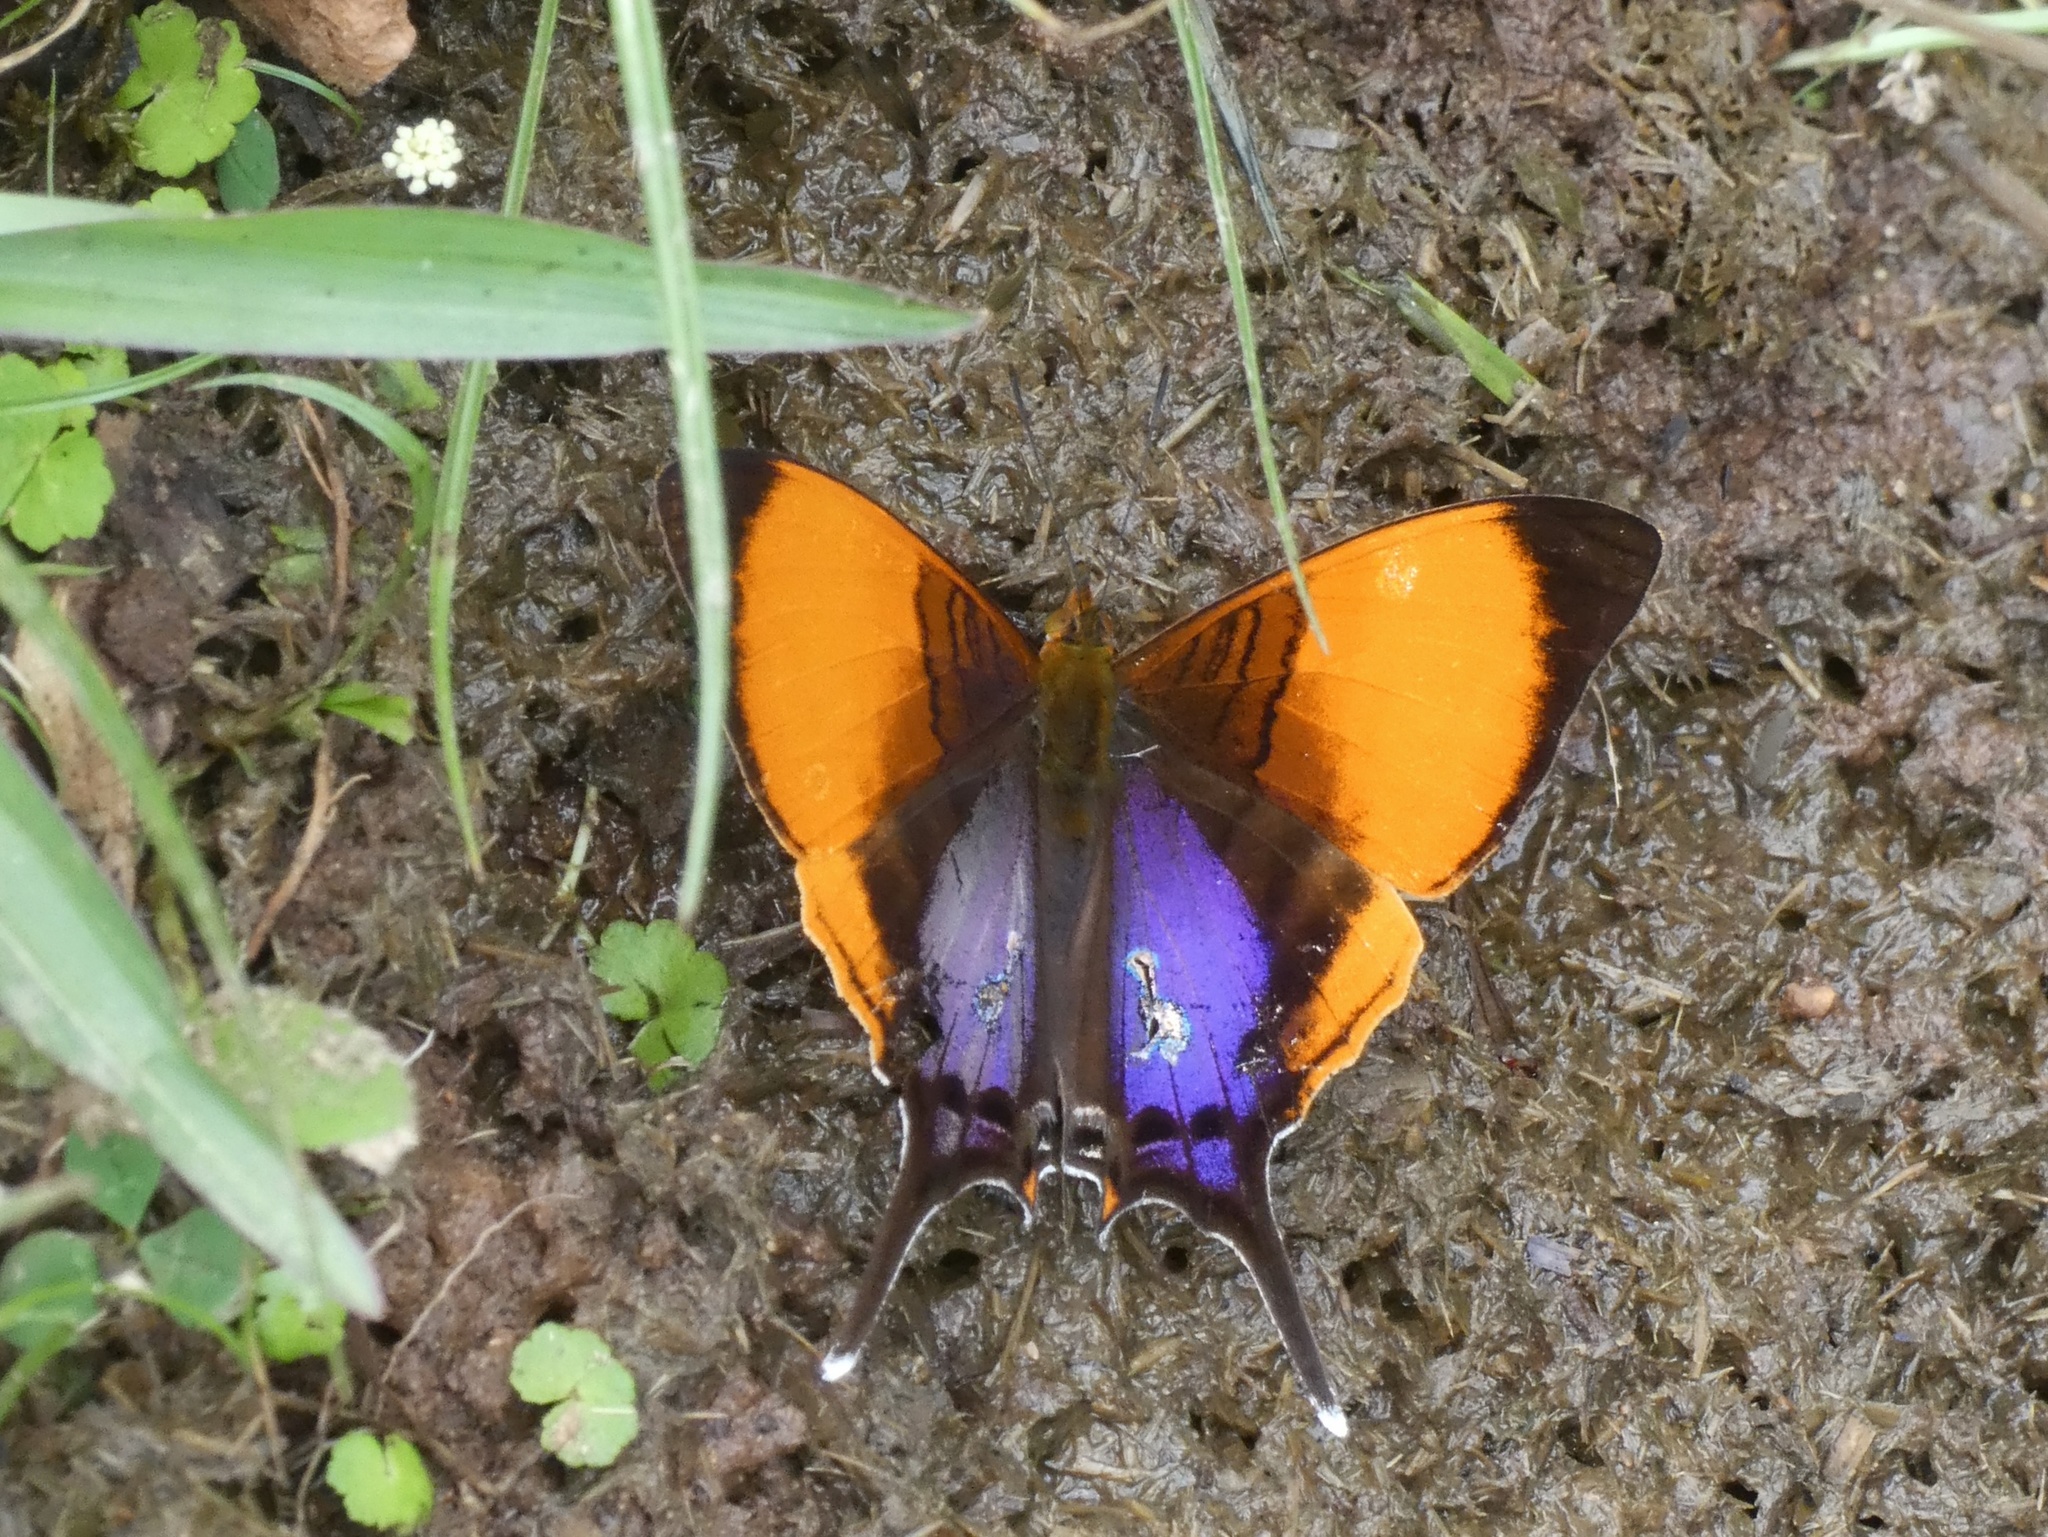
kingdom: Animalia
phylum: Arthropoda
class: Insecta
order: Lepidoptera
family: Nymphalidae
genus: Marpesia
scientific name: Marpesia marcella
